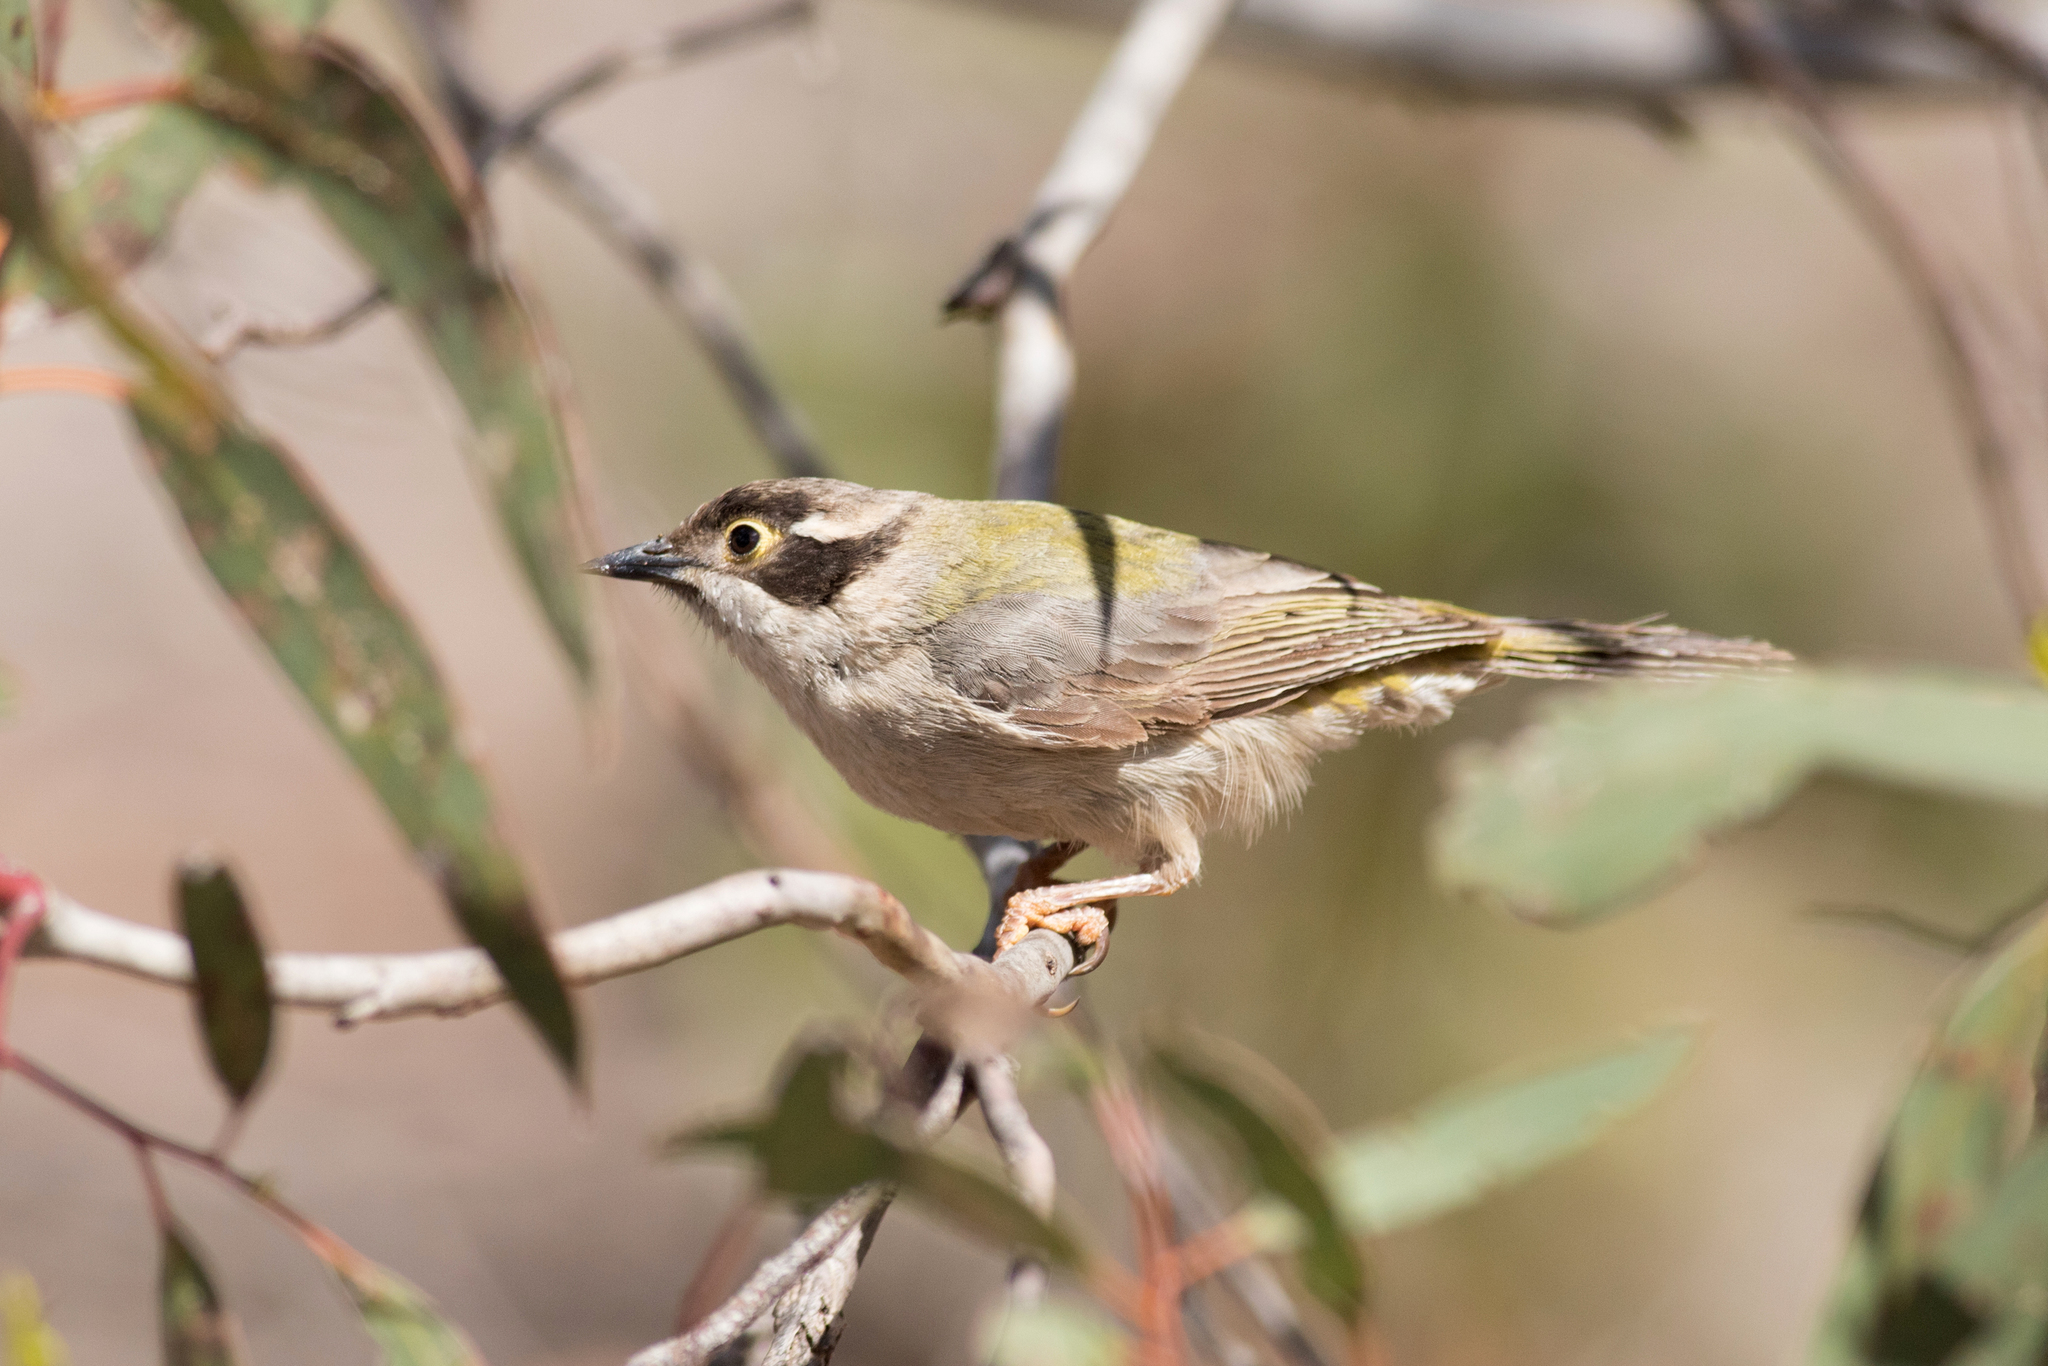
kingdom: Animalia
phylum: Chordata
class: Aves
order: Passeriformes
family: Meliphagidae
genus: Melithreptus
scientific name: Melithreptus brevirostris
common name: Brown-headed honeyeater
